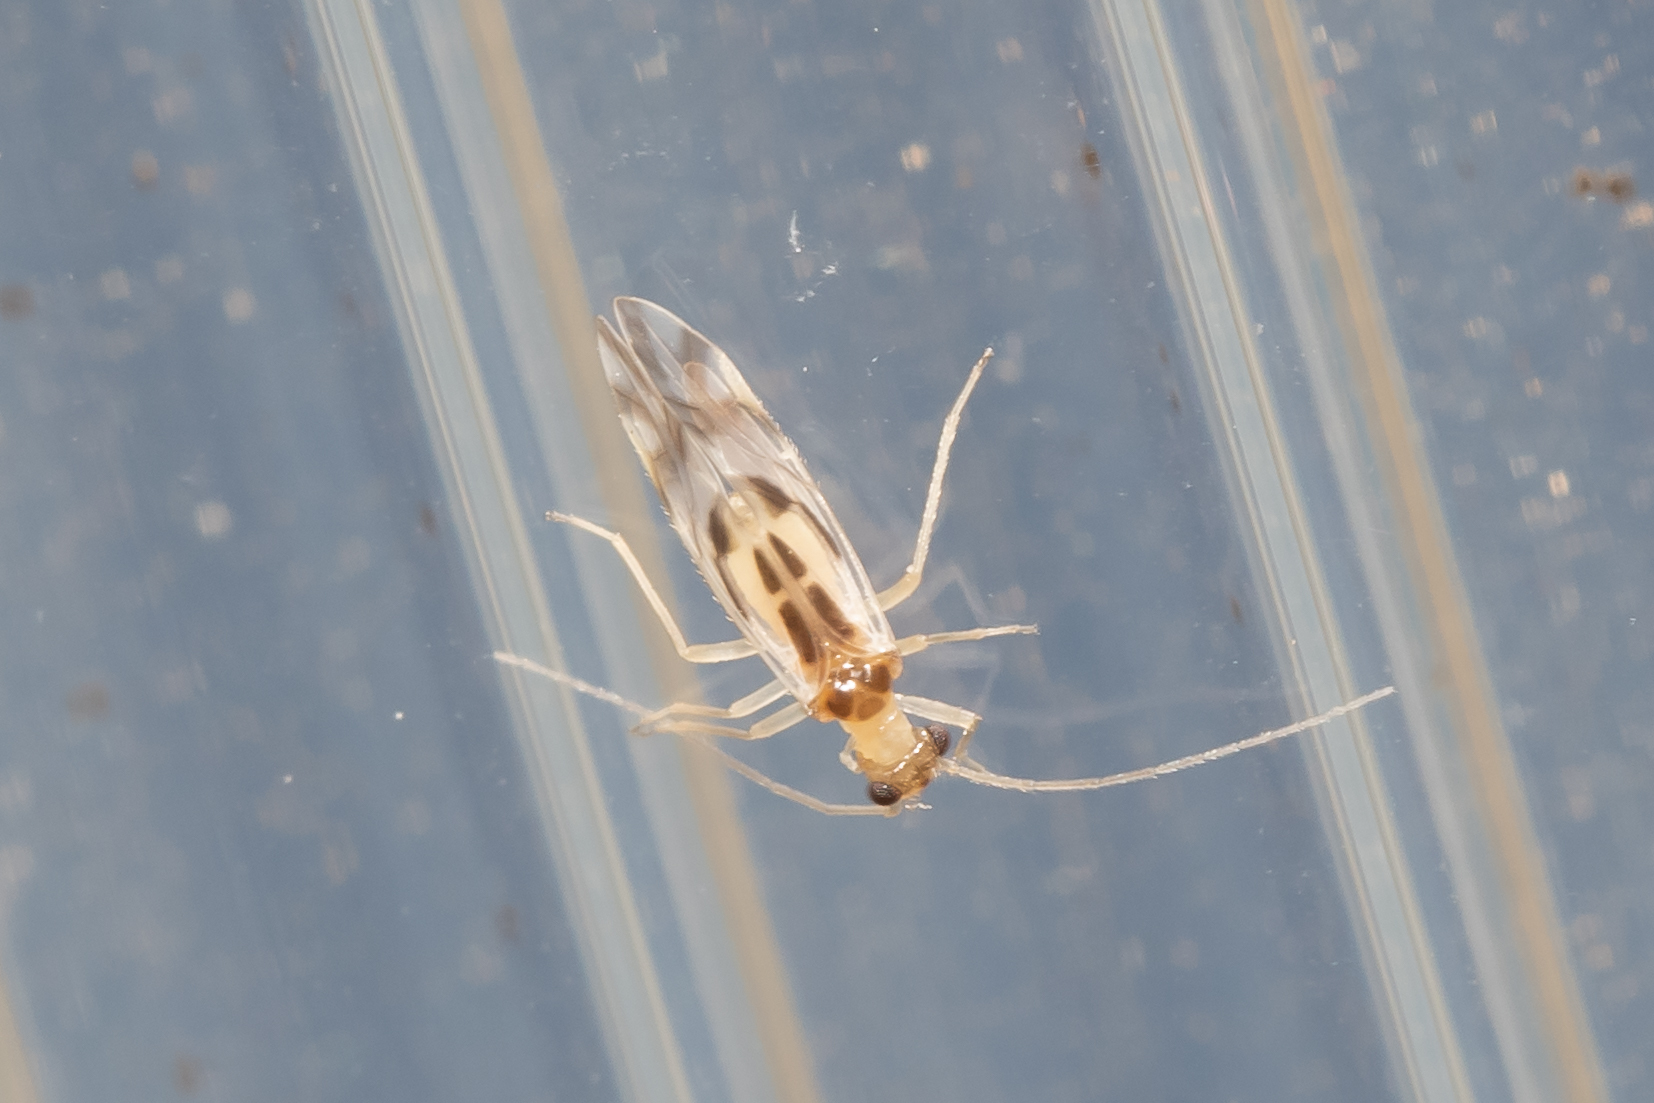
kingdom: Animalia
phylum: Arthropoda
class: Insecta
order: Psocodea
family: Stenopsocidae
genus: Graphopsocus
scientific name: Graphopsocus cruciatus
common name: Lizard bark louse
